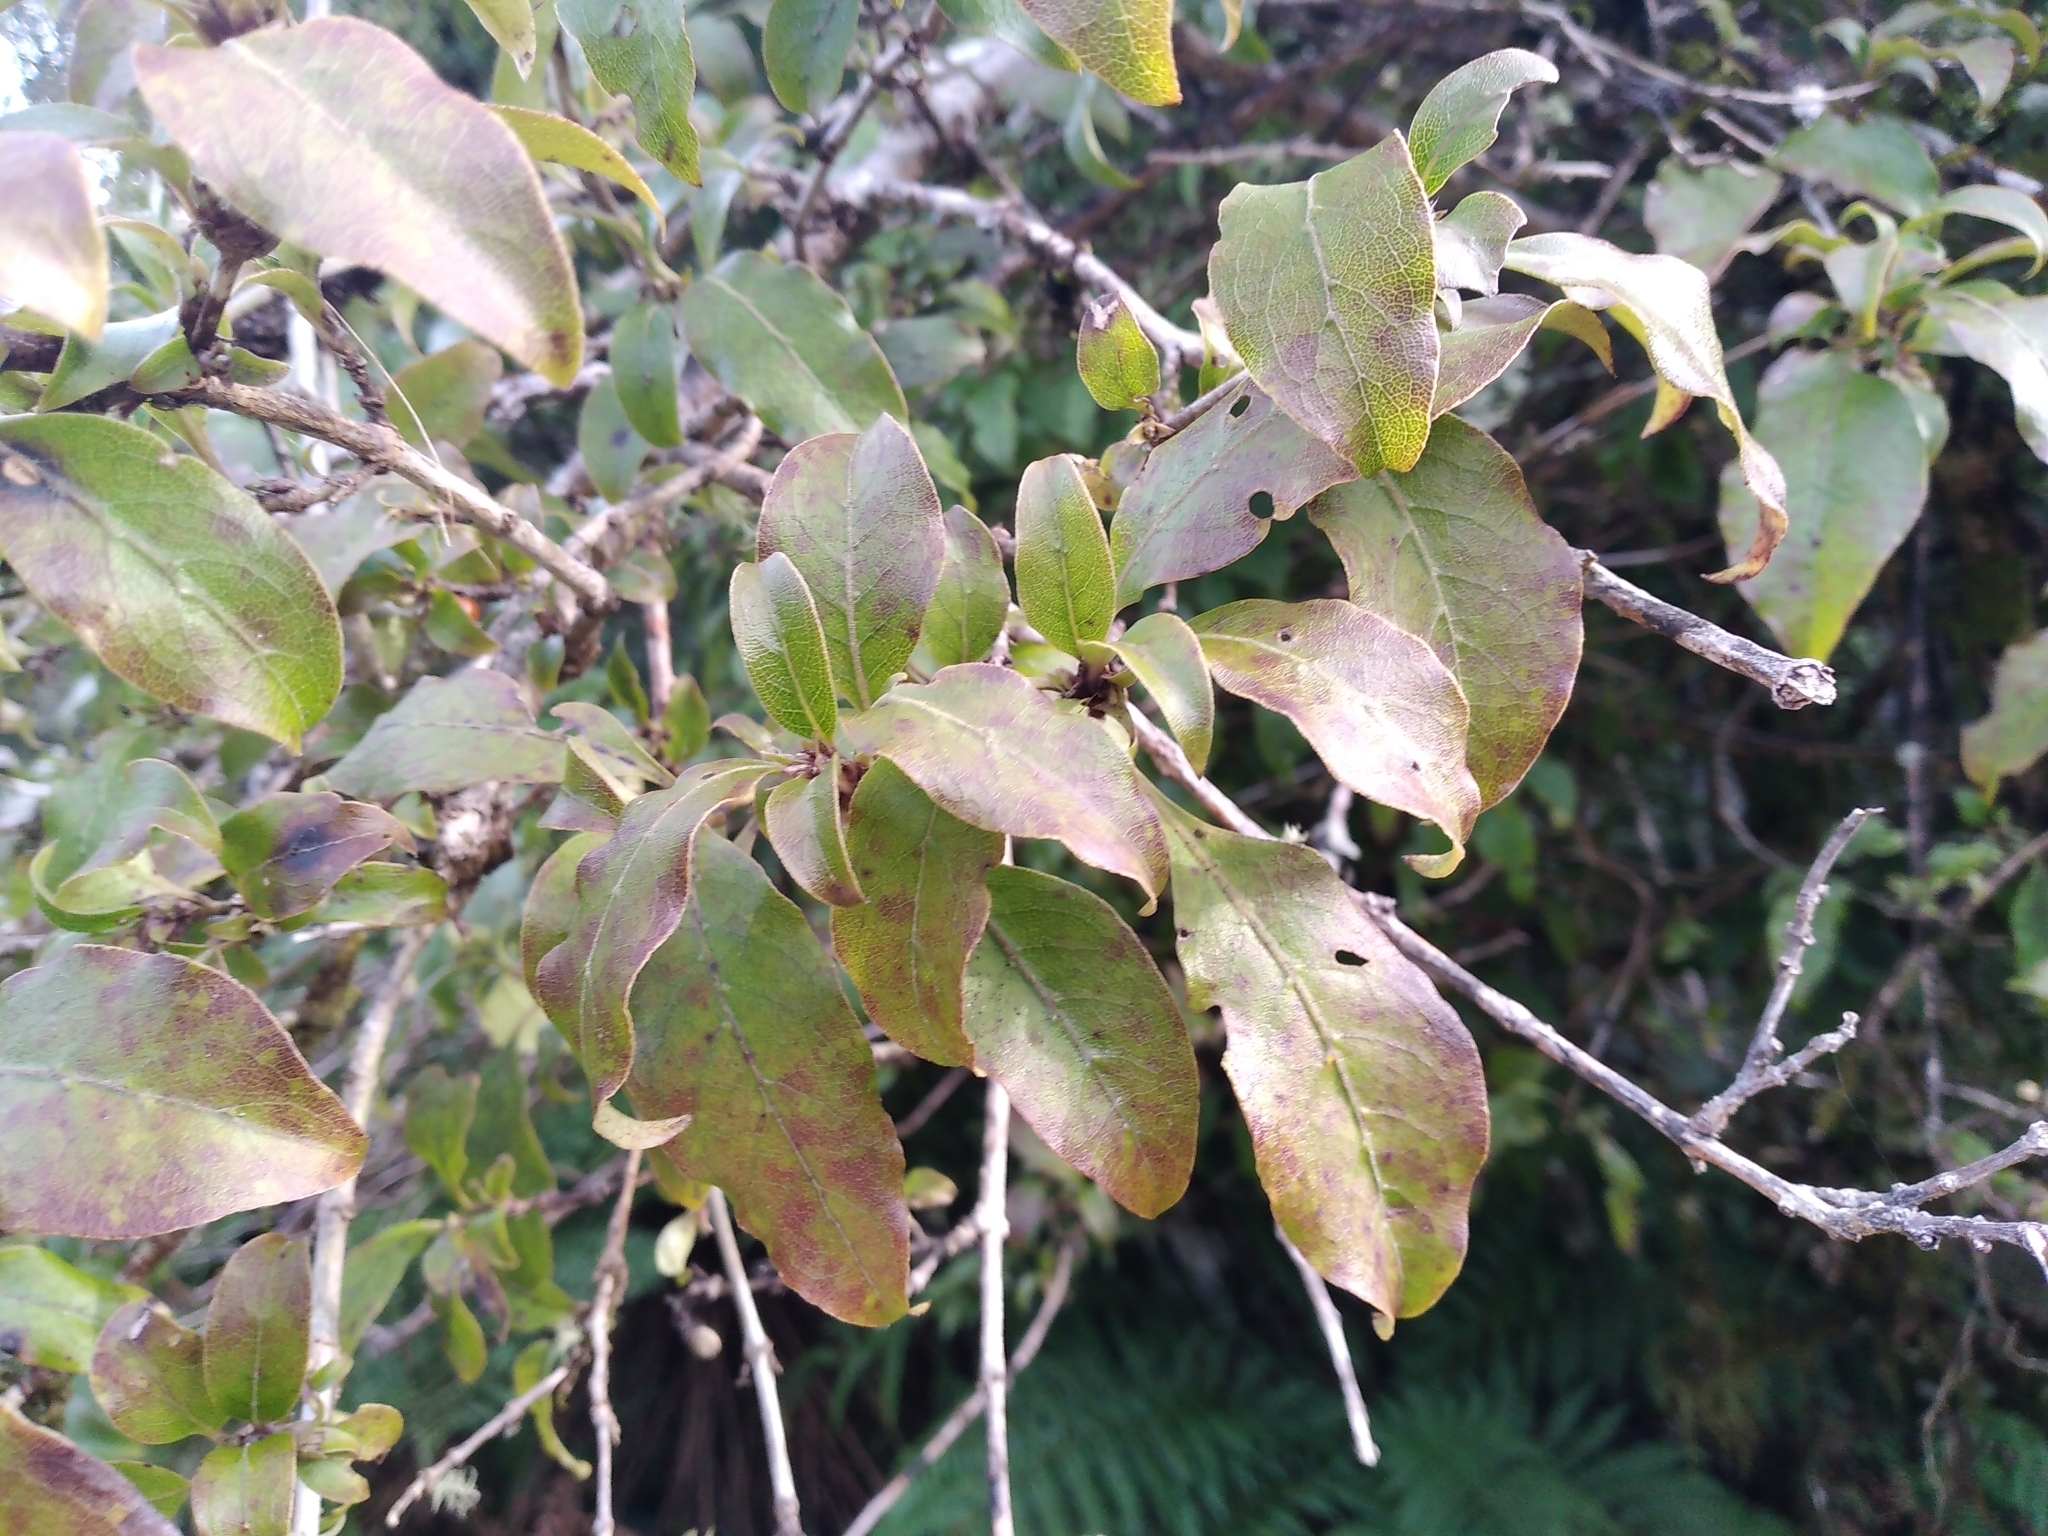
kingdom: Plantae
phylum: Tracheophyta
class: Magnoliopsida
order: Gentianales
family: Rubiaceae
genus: Coprosma
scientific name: Coprosma tenuifolia
